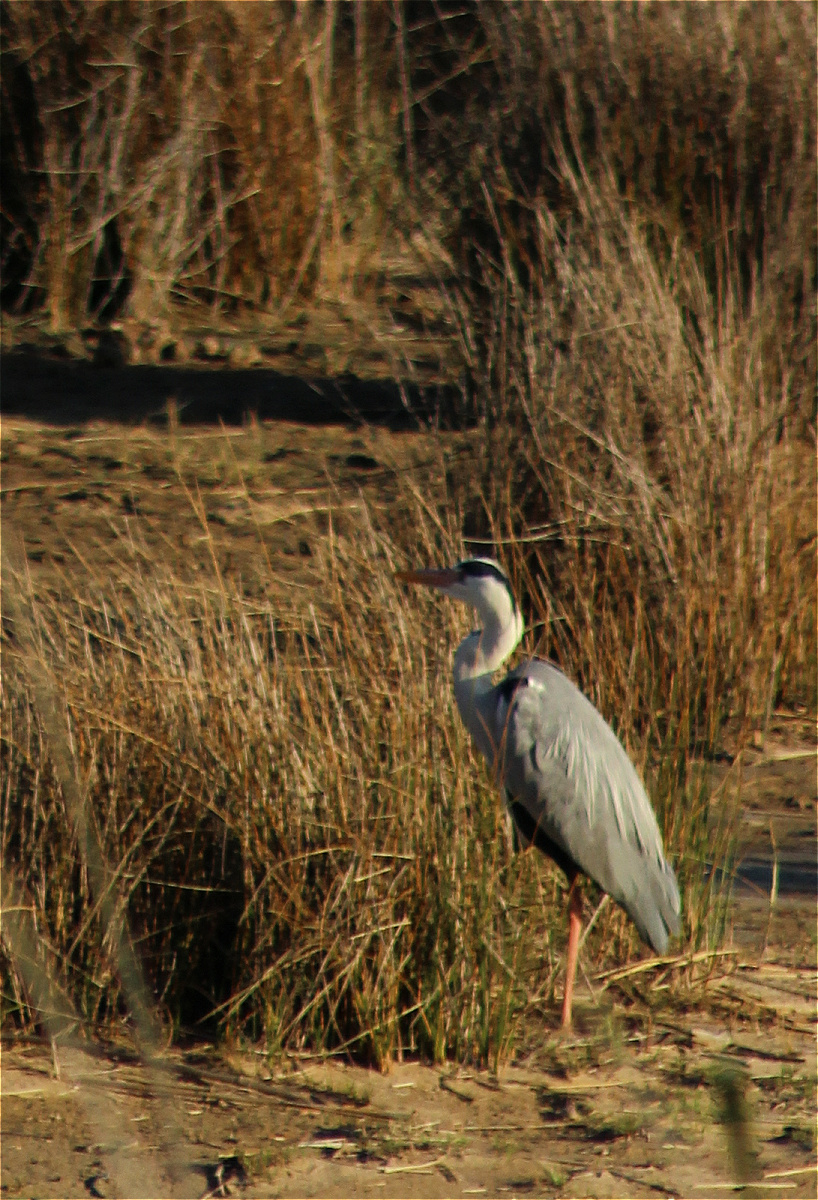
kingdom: Animalia
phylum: Chordata
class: Aves
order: Pelecaniformes
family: Ardeidae
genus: Ardea
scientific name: Ardea cinerea
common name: Grey heron
